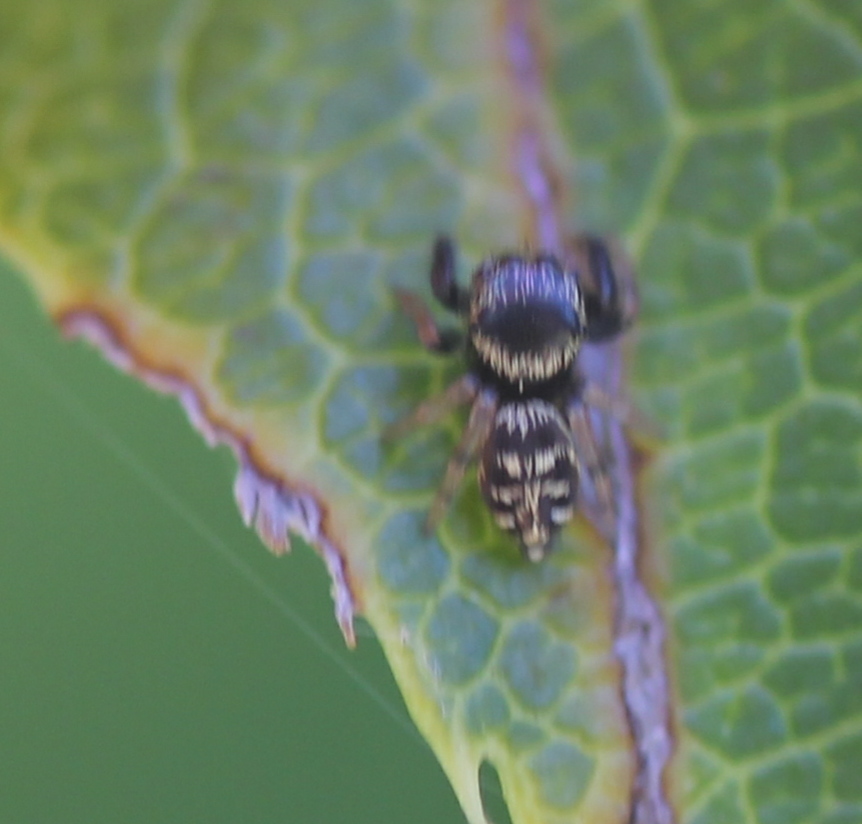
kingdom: Animalia
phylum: Arthropoda
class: Arachnida
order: Araneae
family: Salticidae
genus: Paraphidippus
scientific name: Paraphidippus aurantius
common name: Jumping spiders
